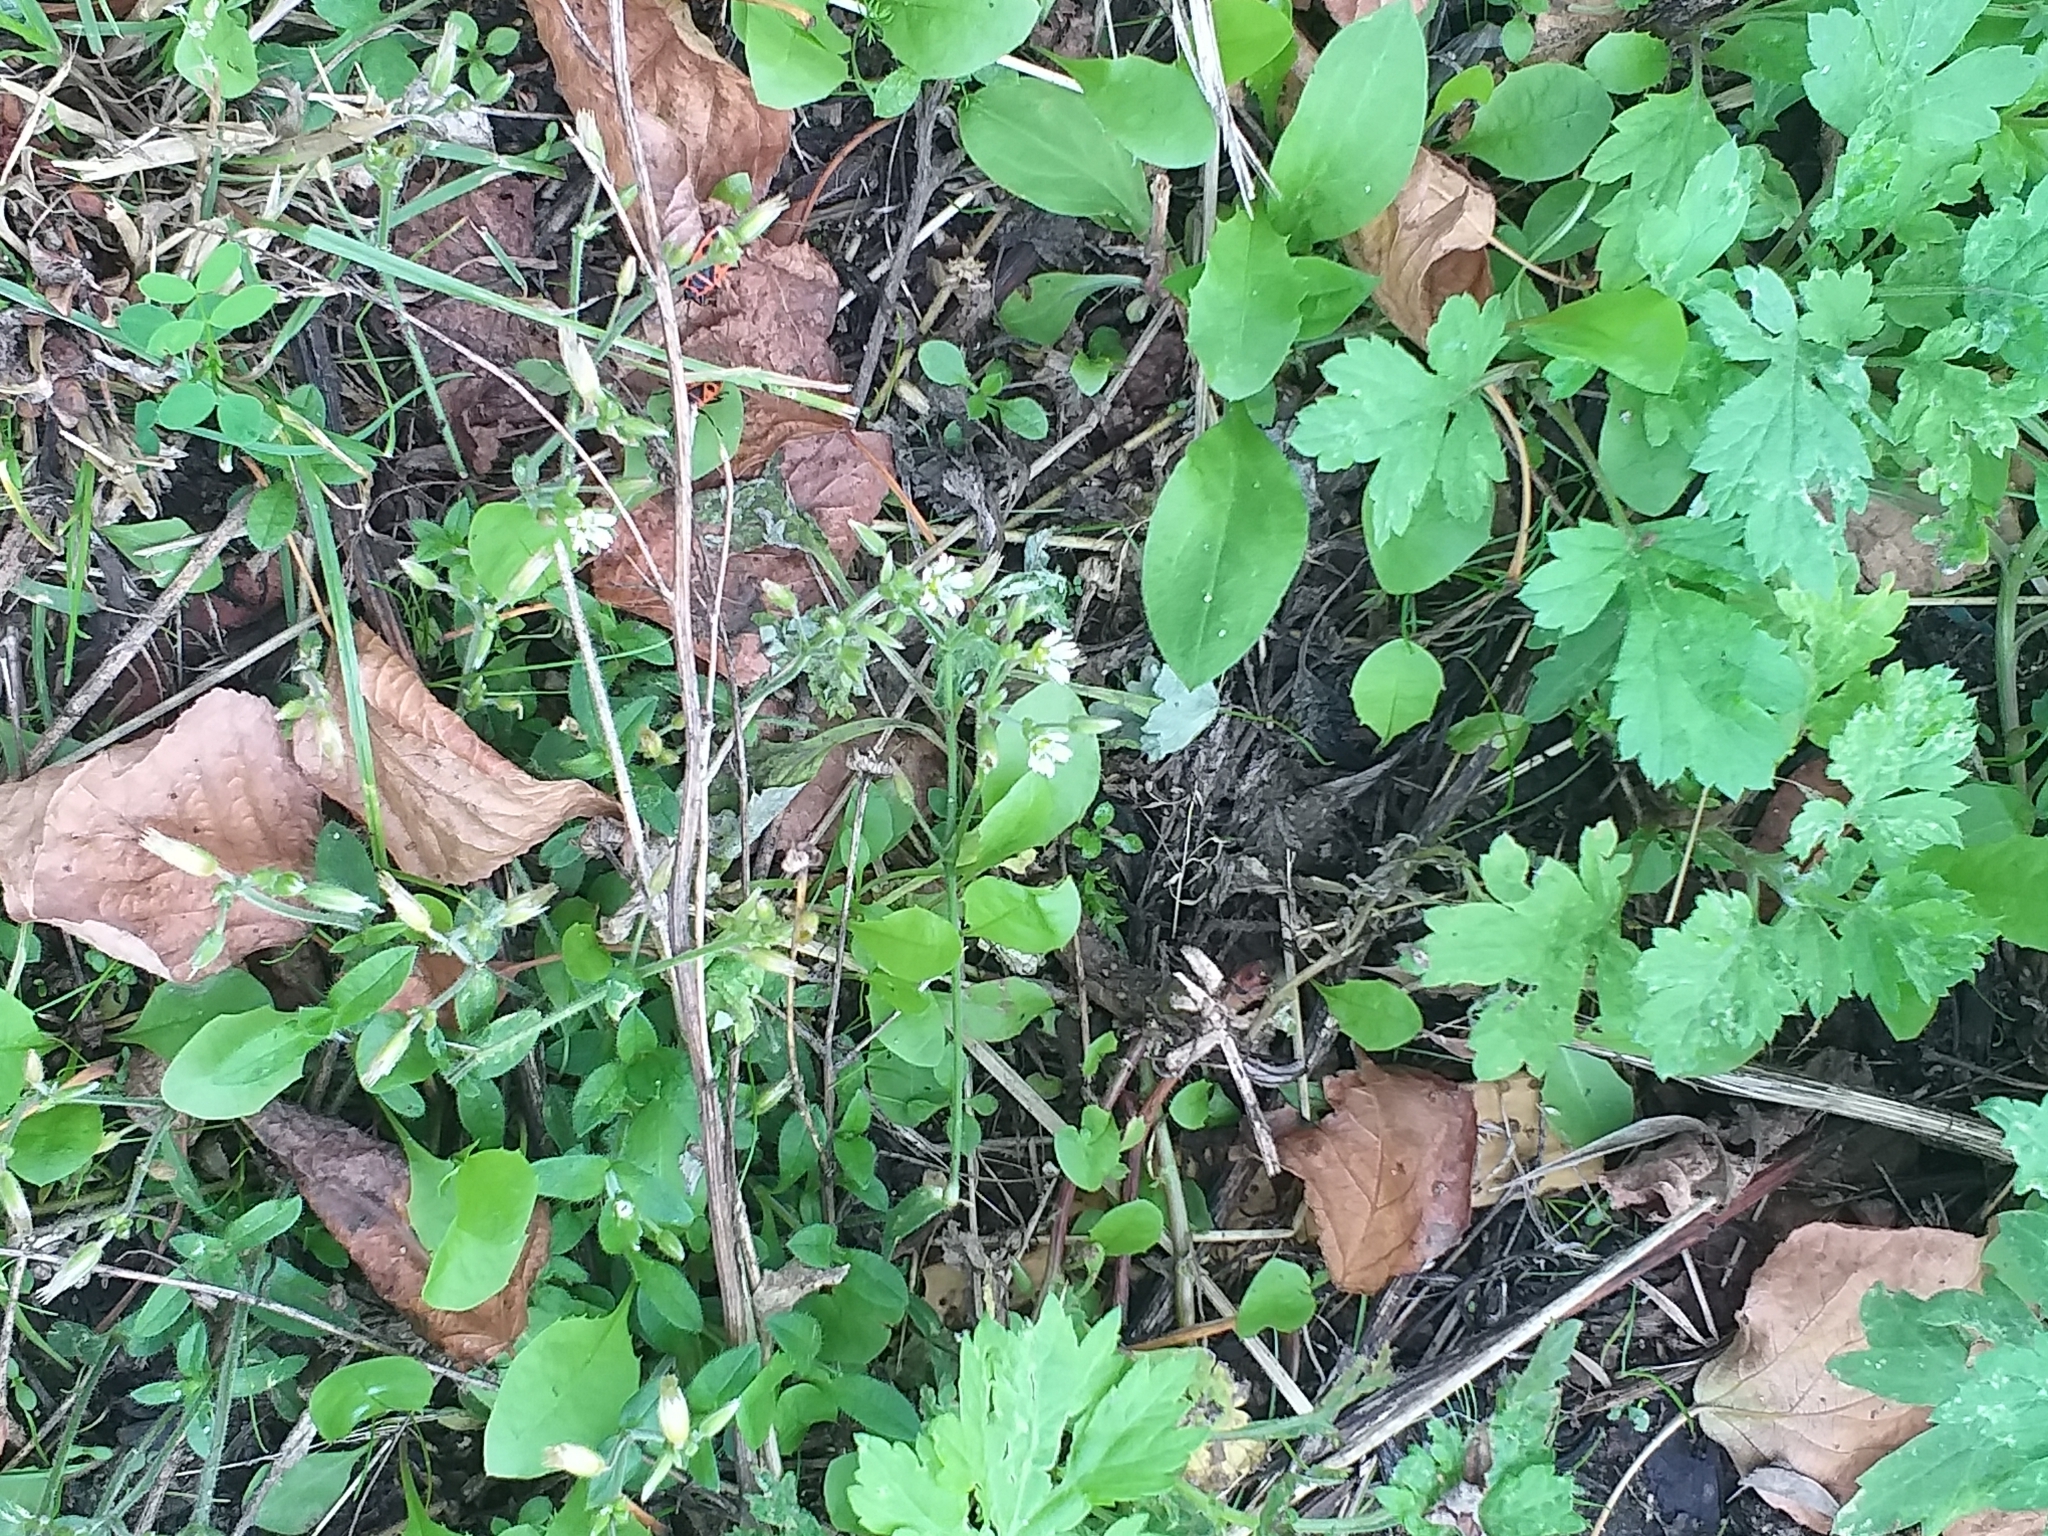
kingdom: Plantae
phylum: Tracheophyta
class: Magnoliopsida
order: Caryophyllales
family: Caryophyllaceae
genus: Cerastium
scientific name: Cerastium holosteoides
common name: Big chickweed
